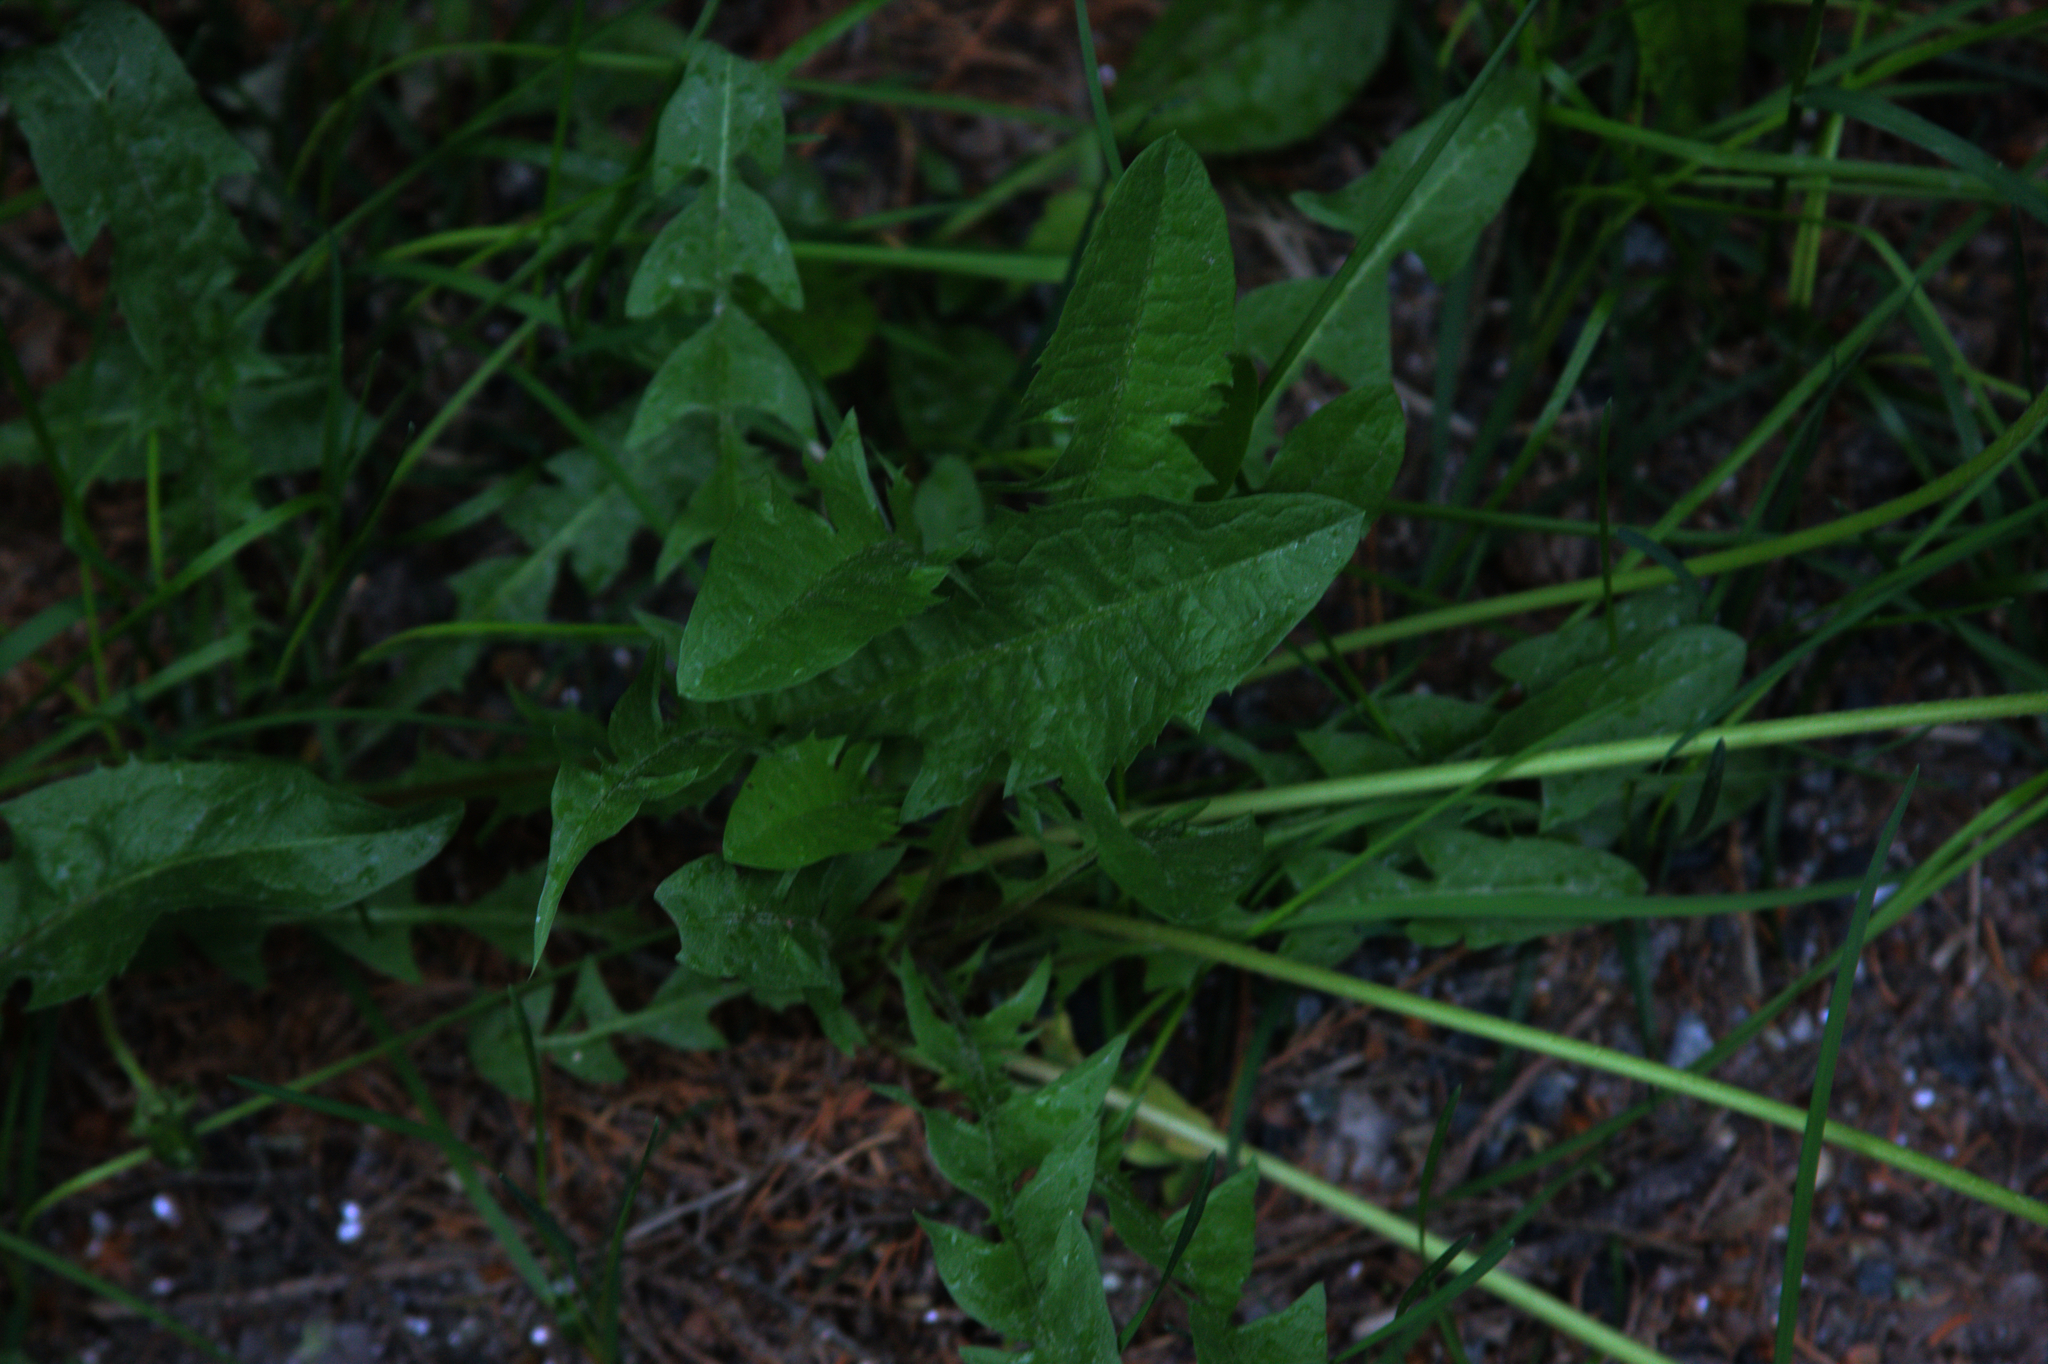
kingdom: Plantae
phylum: Tracheophyta
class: Magnoliopsida
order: Asterales
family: Asteraceae
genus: Taraxacum
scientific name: Taraxacum officinale
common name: Common dandelion
